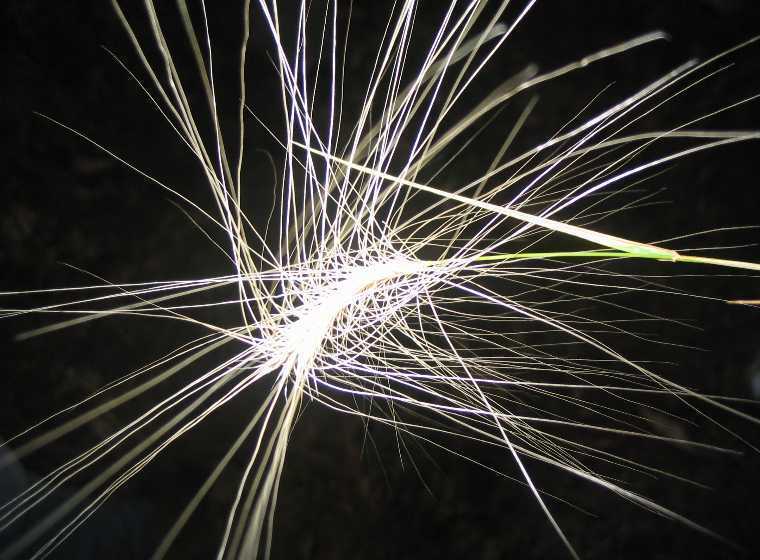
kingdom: Plantae
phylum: Tracheophyta
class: Liliopsida
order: Poales
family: Poaceae
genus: Hordeum
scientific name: Hordeum jubatum
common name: Foxtail barley
